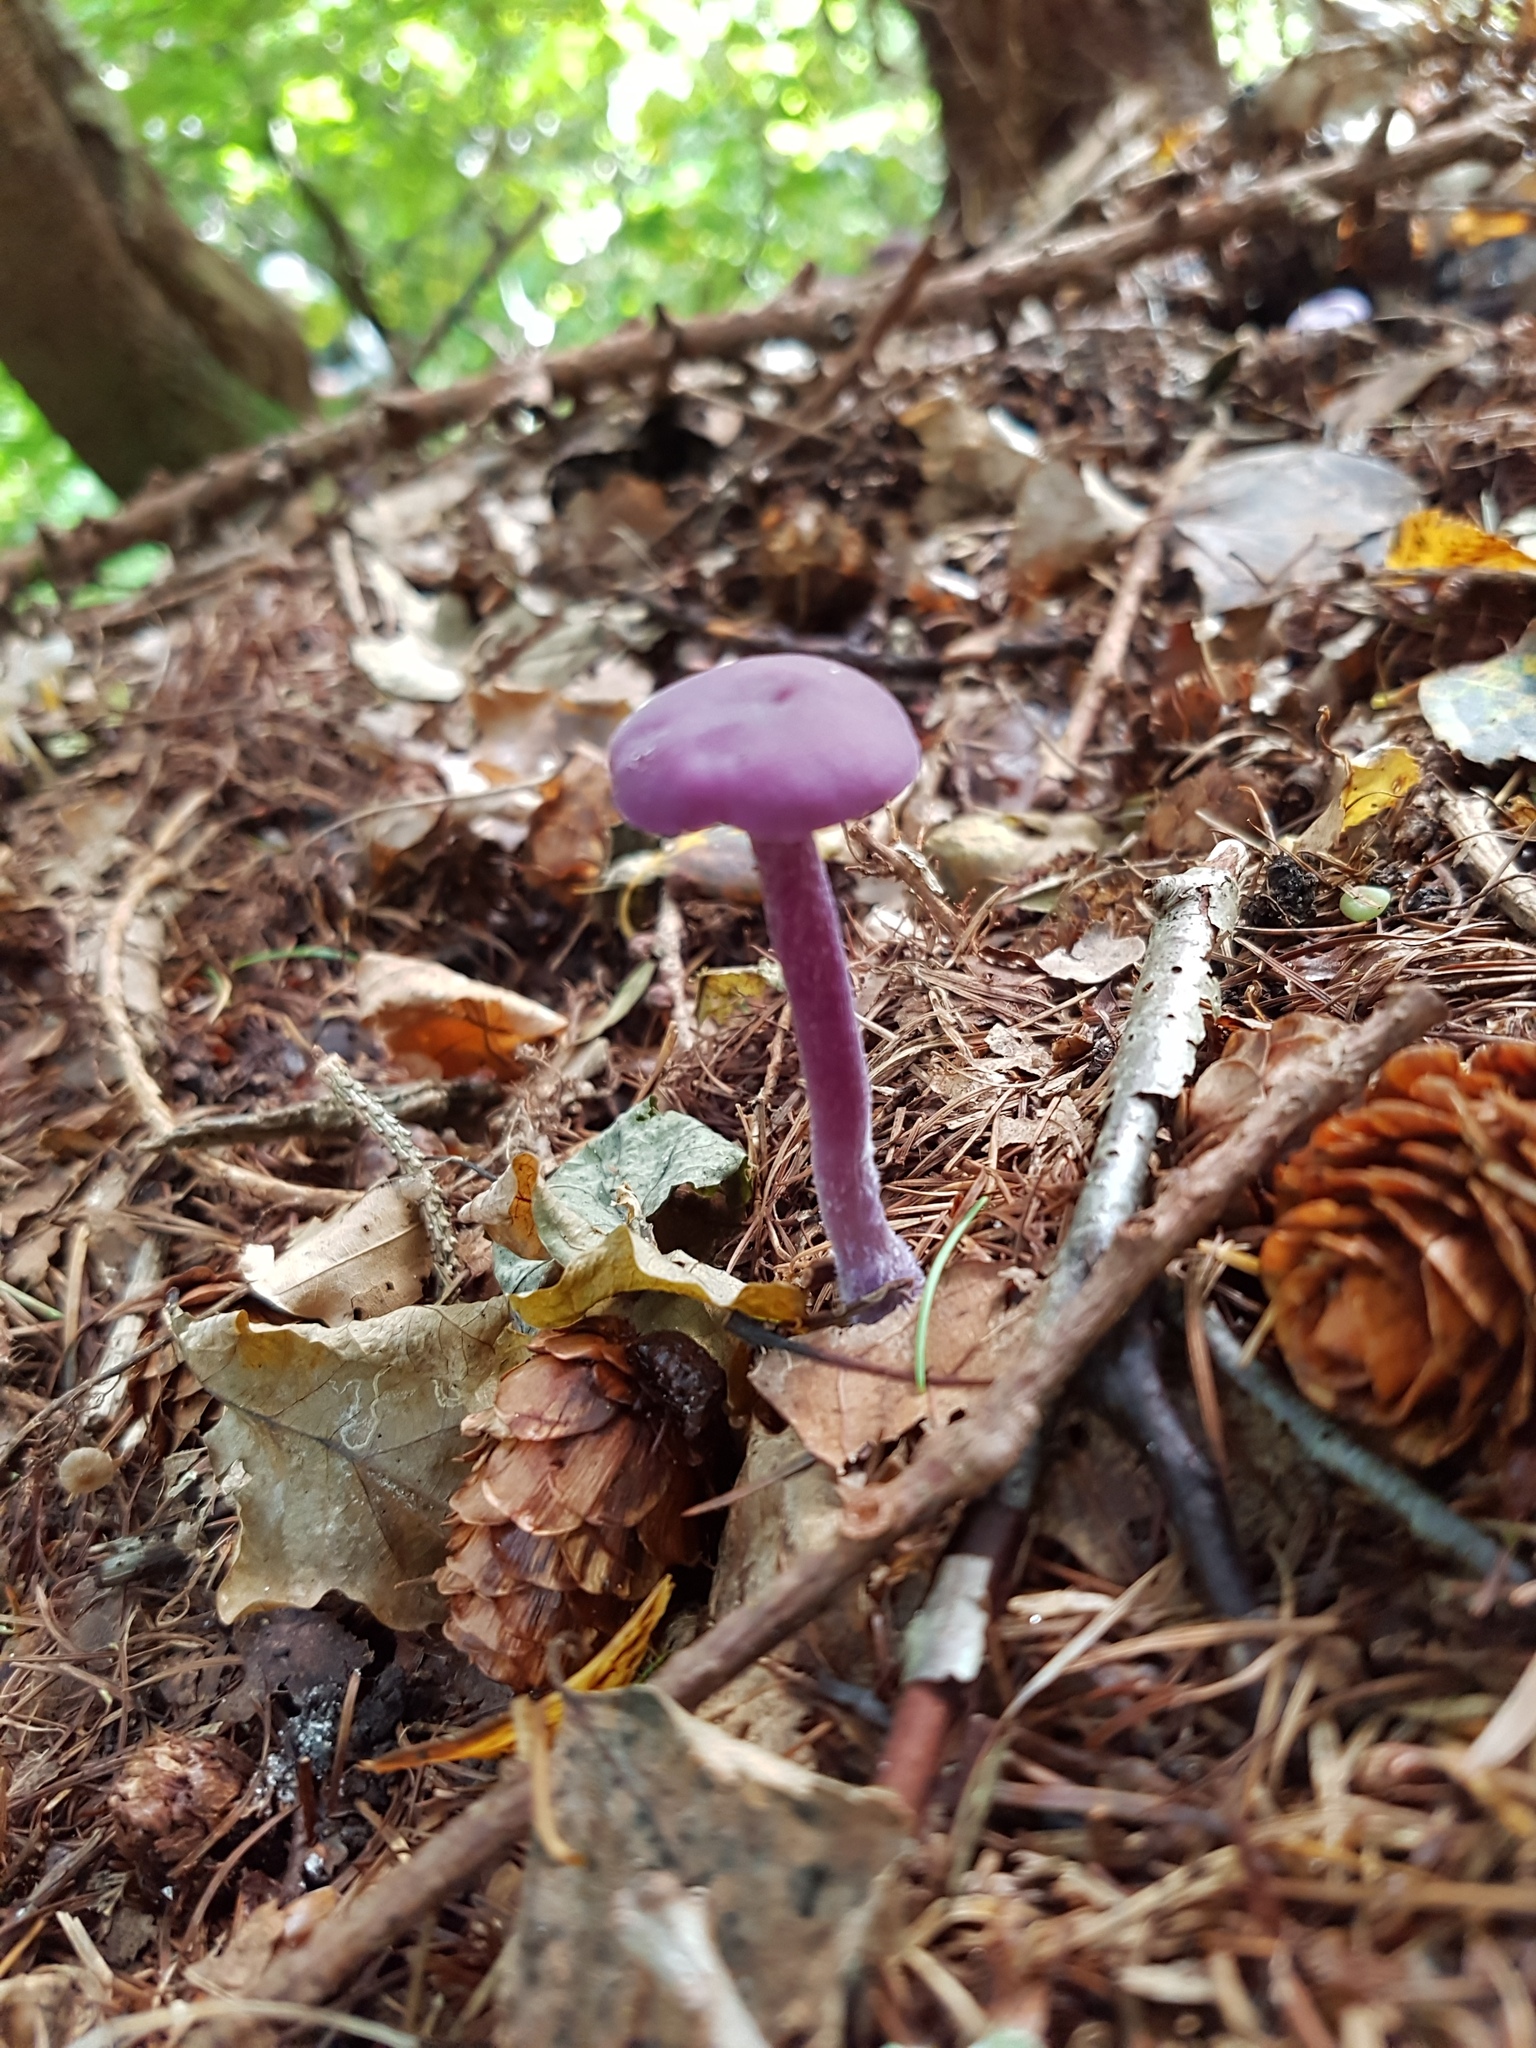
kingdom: Fungi
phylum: Basidiomycota
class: Agaricomycetes
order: Agaricales
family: Hydnangiaceae
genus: Laccaria
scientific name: Laccaria amethystina
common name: Amethyst deceiver
